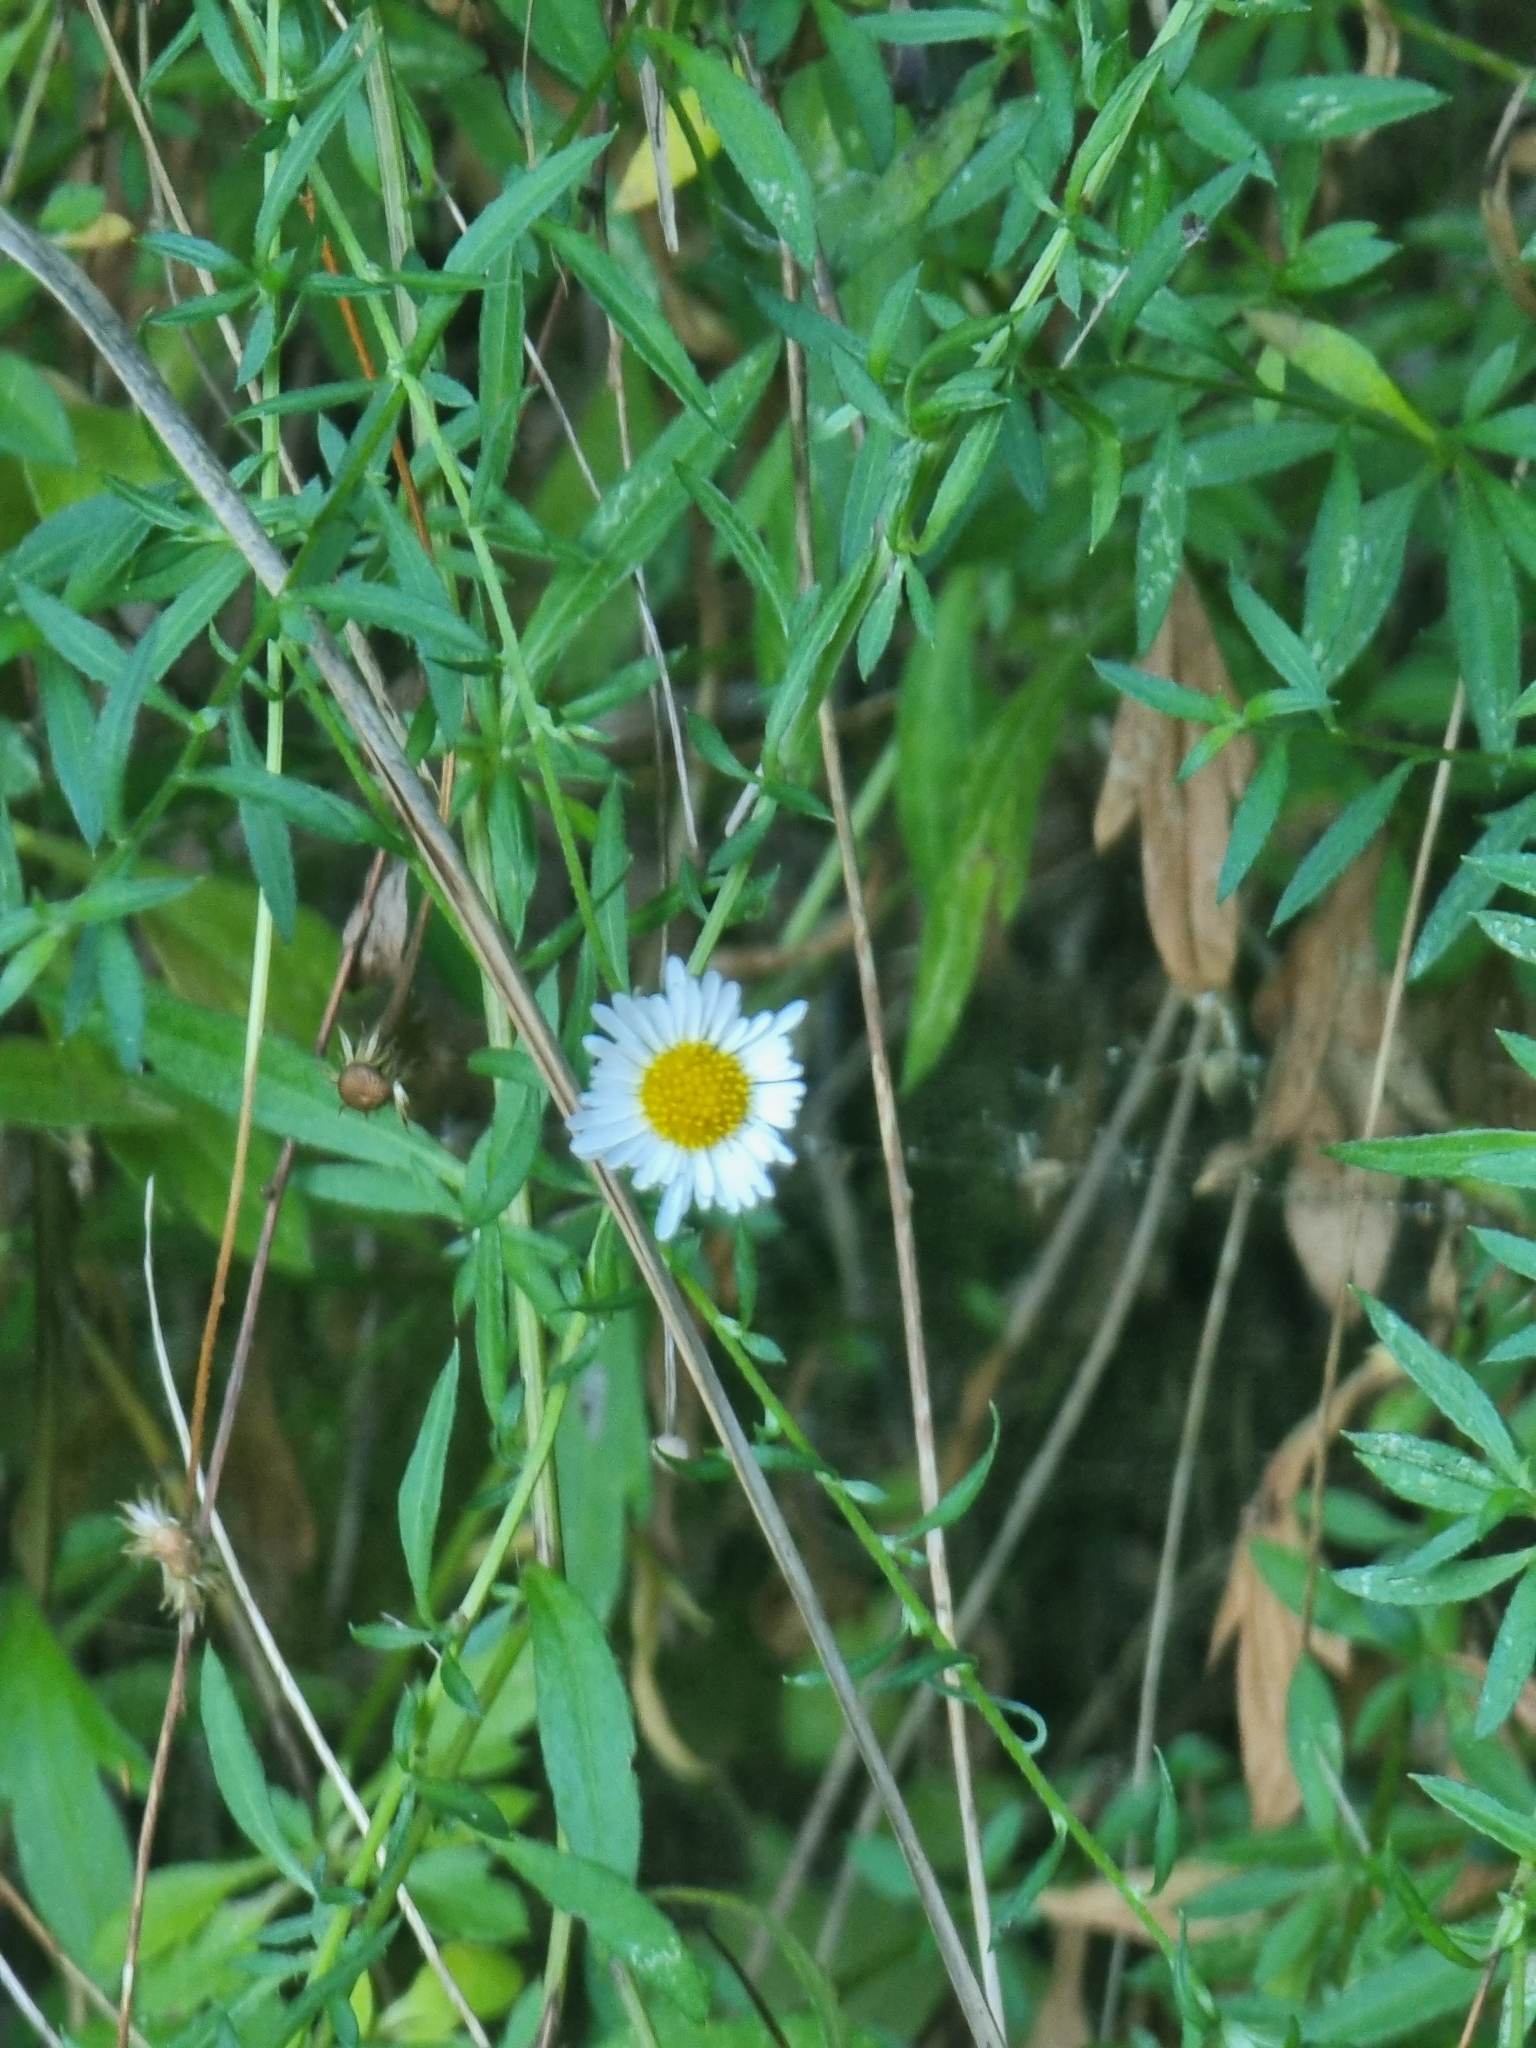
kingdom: Plantae
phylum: Tracheophyta
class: Magnoliopsida
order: Asterales
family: Asteraceae
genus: Erigeron
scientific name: Erigeron karvinskianus
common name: Mexican fleabane
